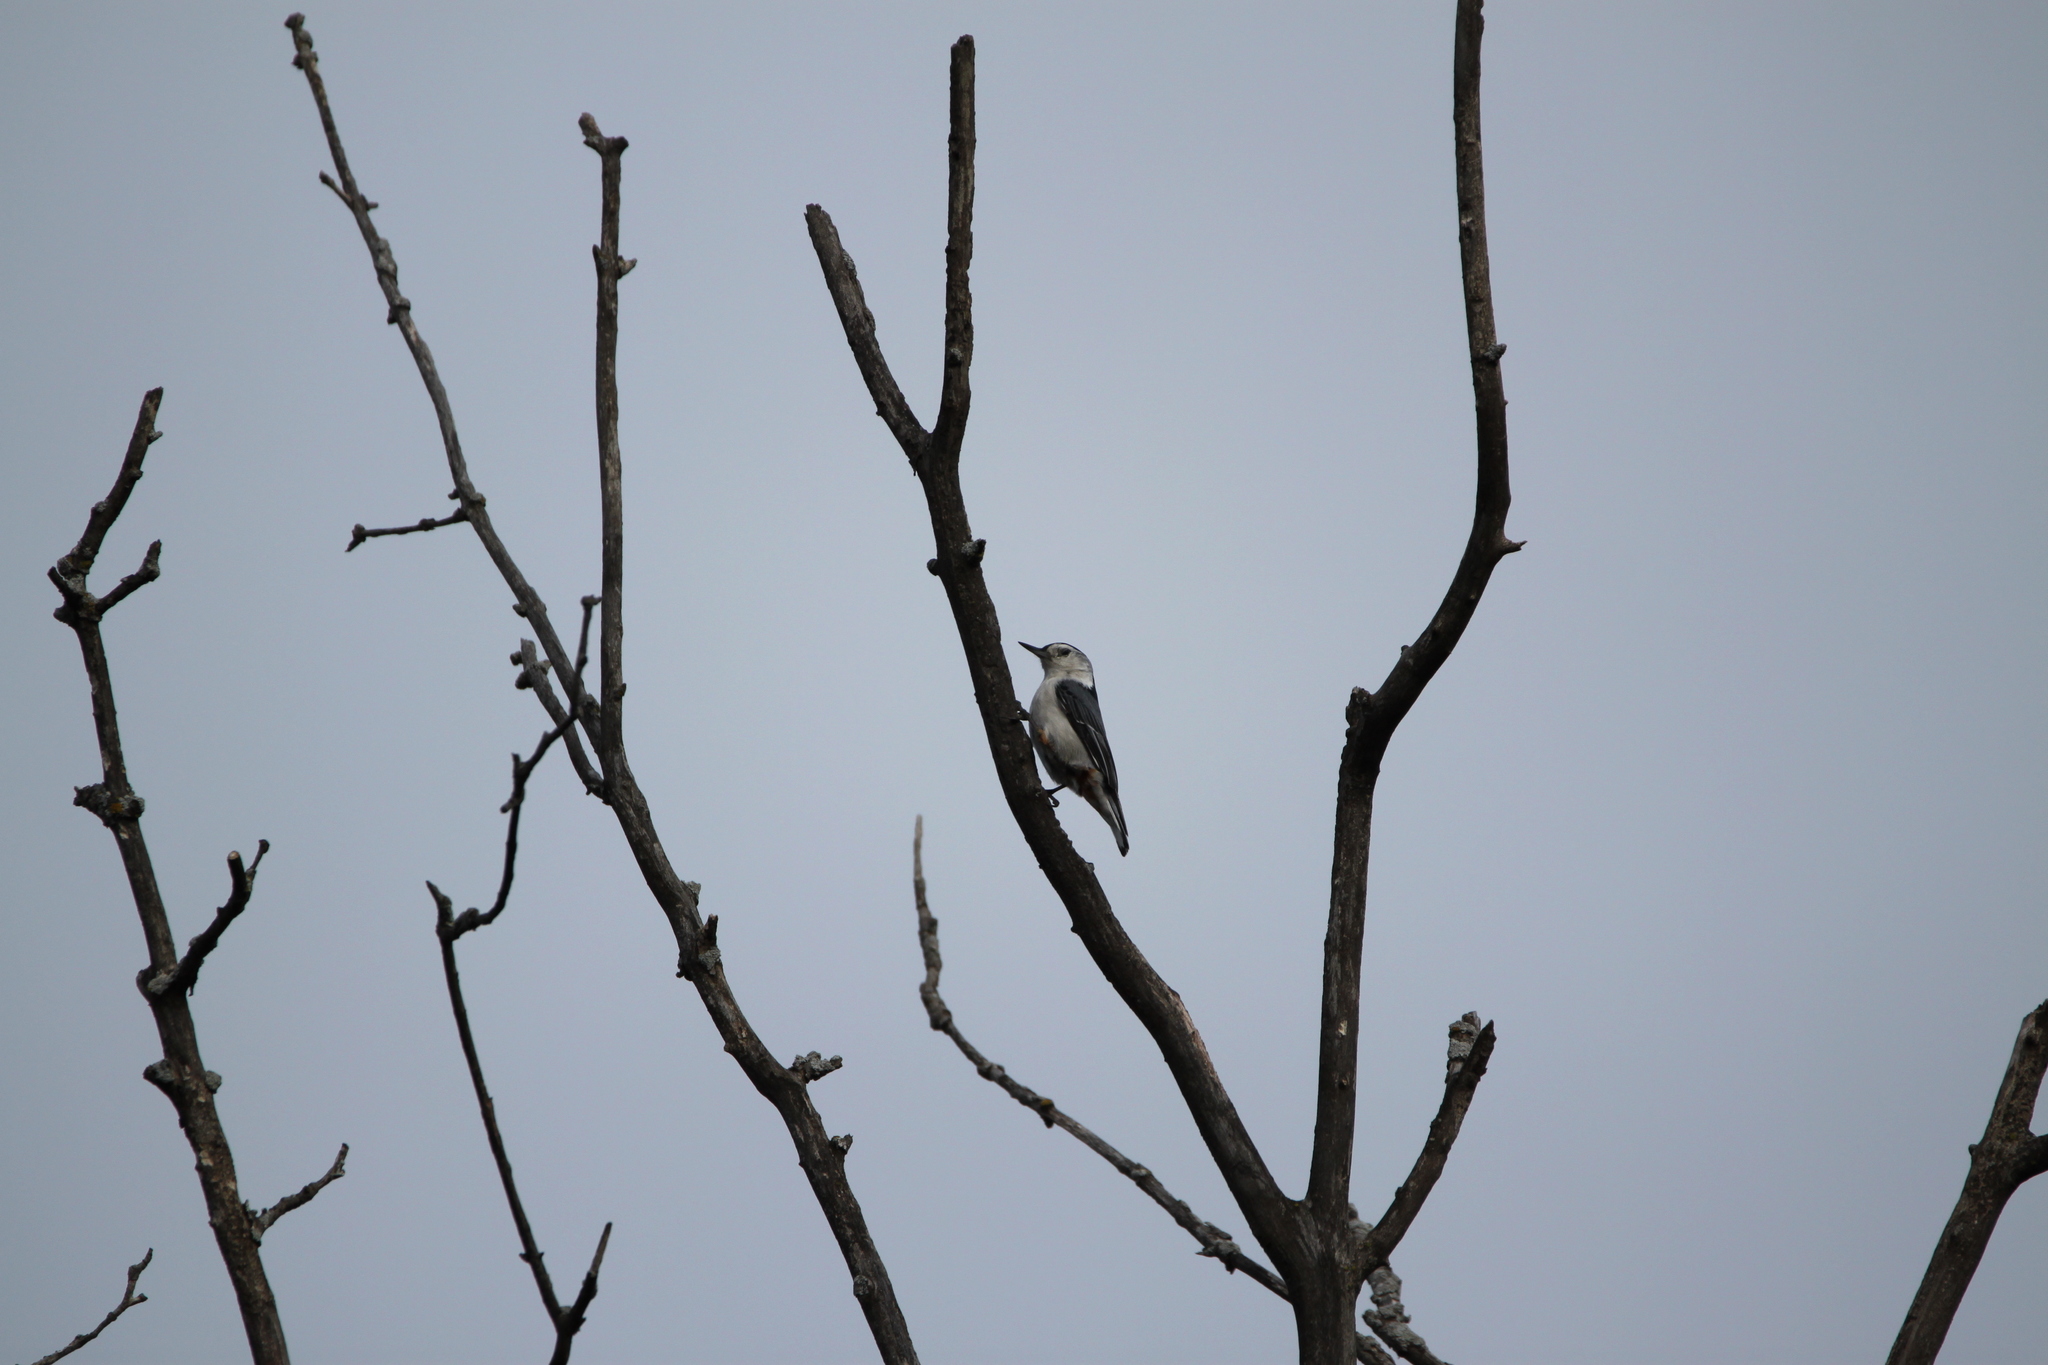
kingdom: Animalia
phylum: Chordata
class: Aves
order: Passeriformes
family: Sittidae
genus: Sitta
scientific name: Sitta carolinensis
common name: White-breasted nuthatch
